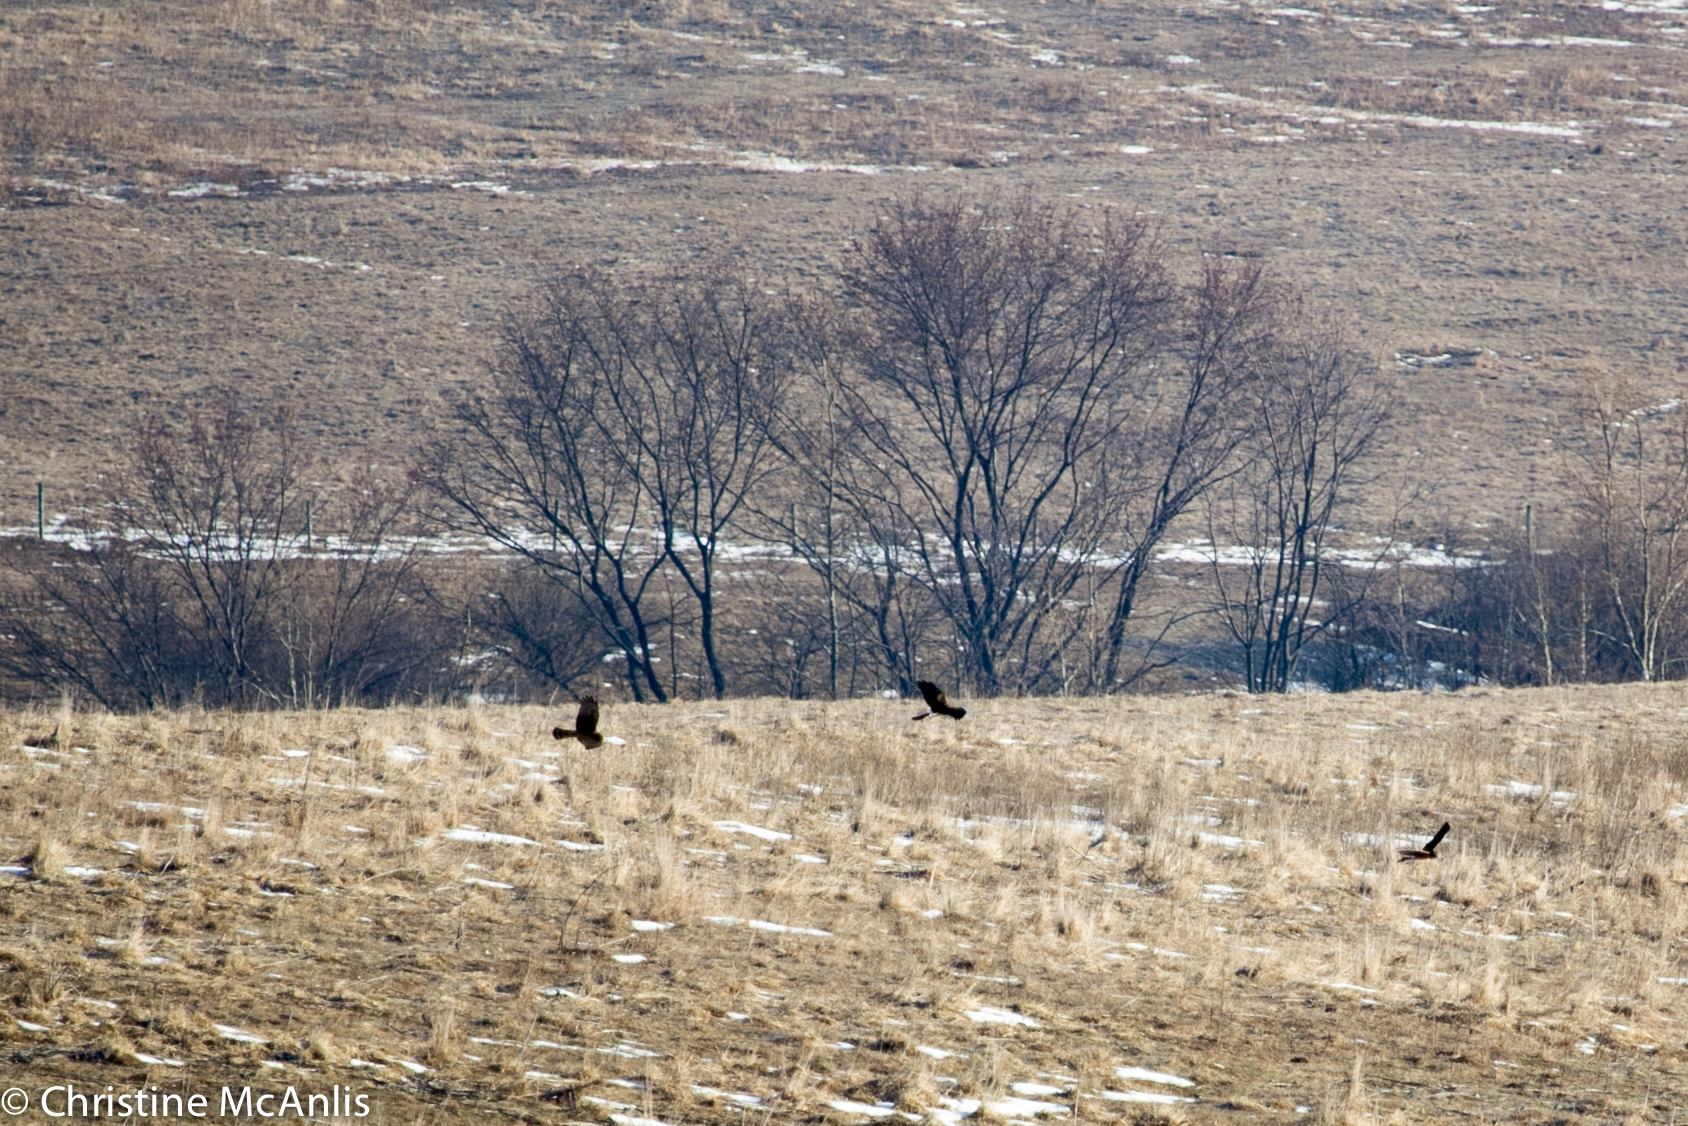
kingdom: Animalia
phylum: Chordata
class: Aves
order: Accipitriformes
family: Accipitridae
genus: Circus
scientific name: Circus cyaneus
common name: Hen harrier
